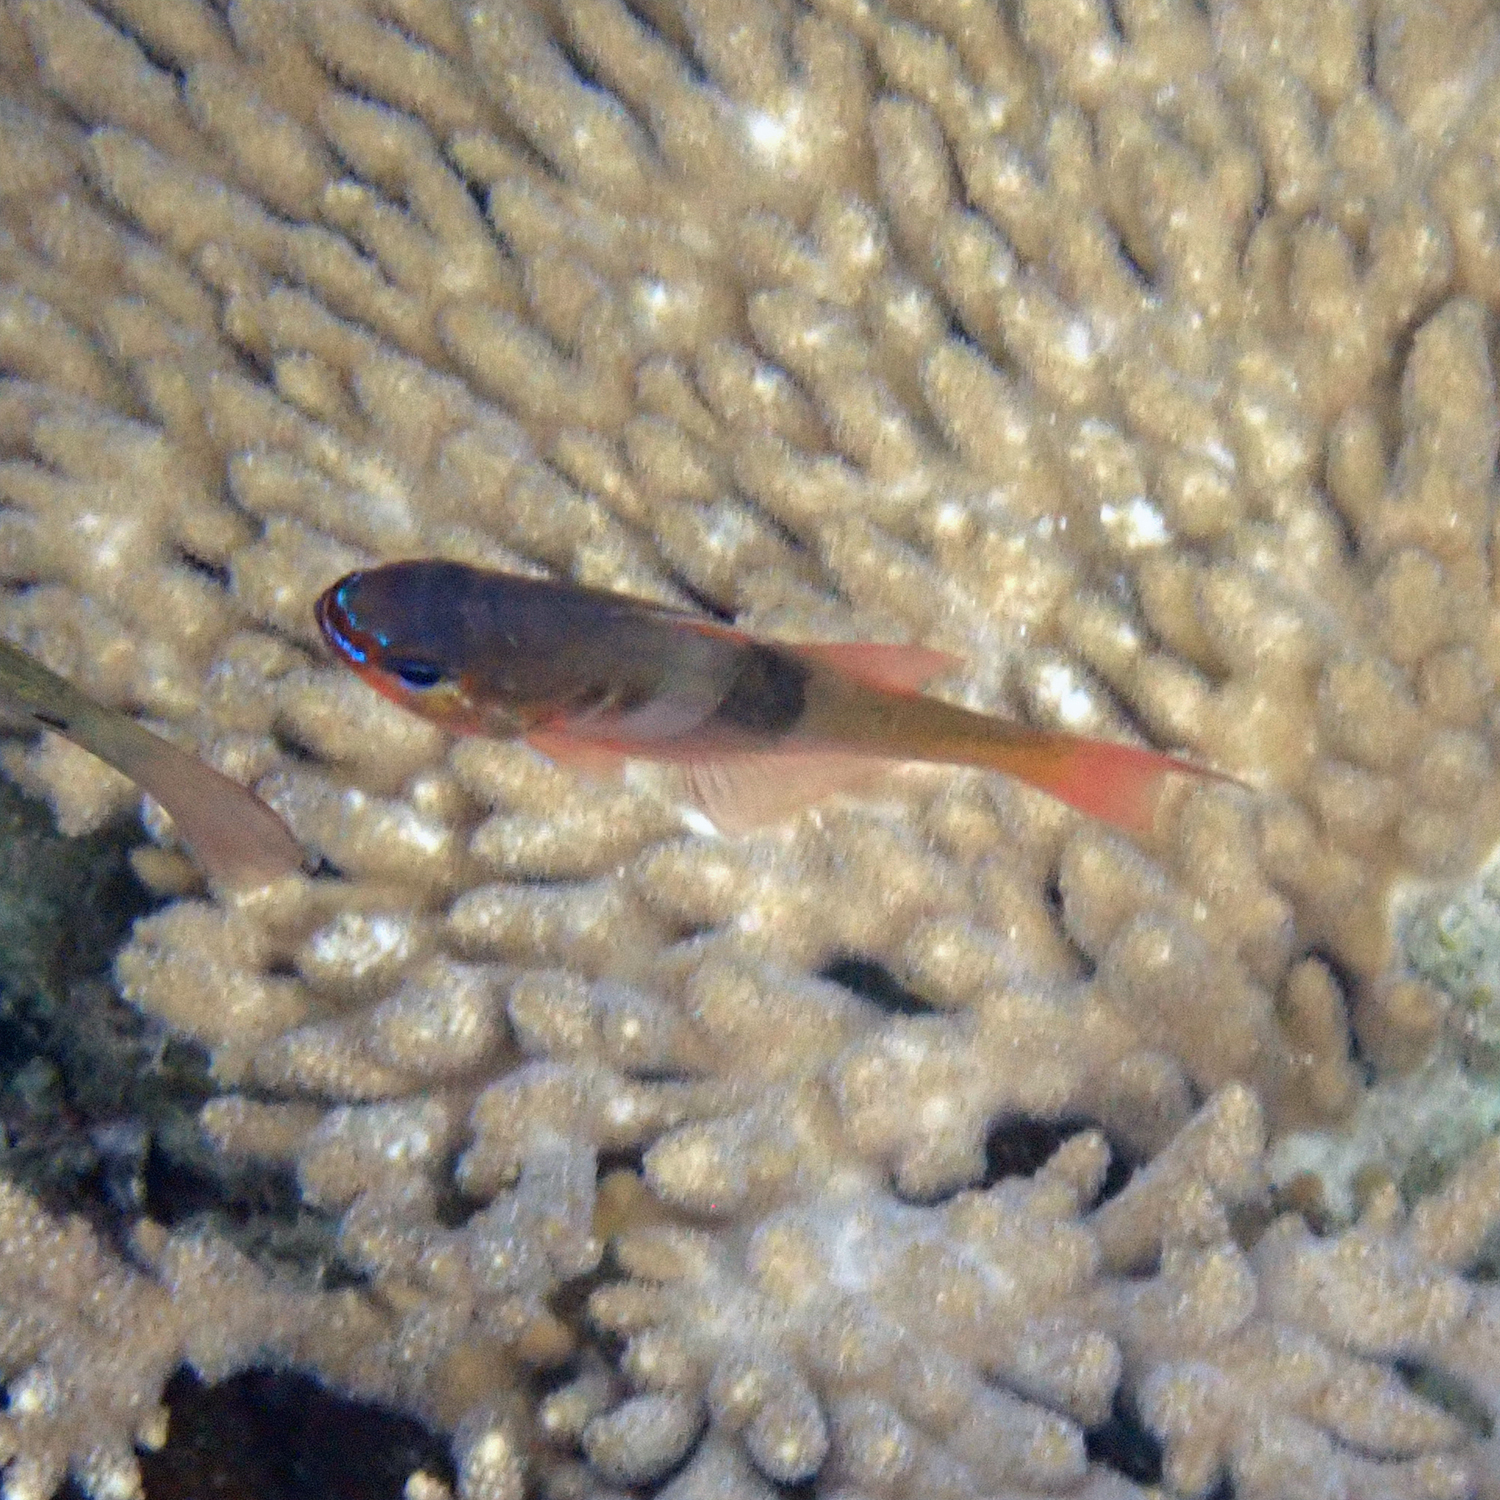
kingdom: Animalia
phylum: Chordata
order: Perciformes
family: Apogonidae
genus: Taeniamia
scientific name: Taeniamia leai
